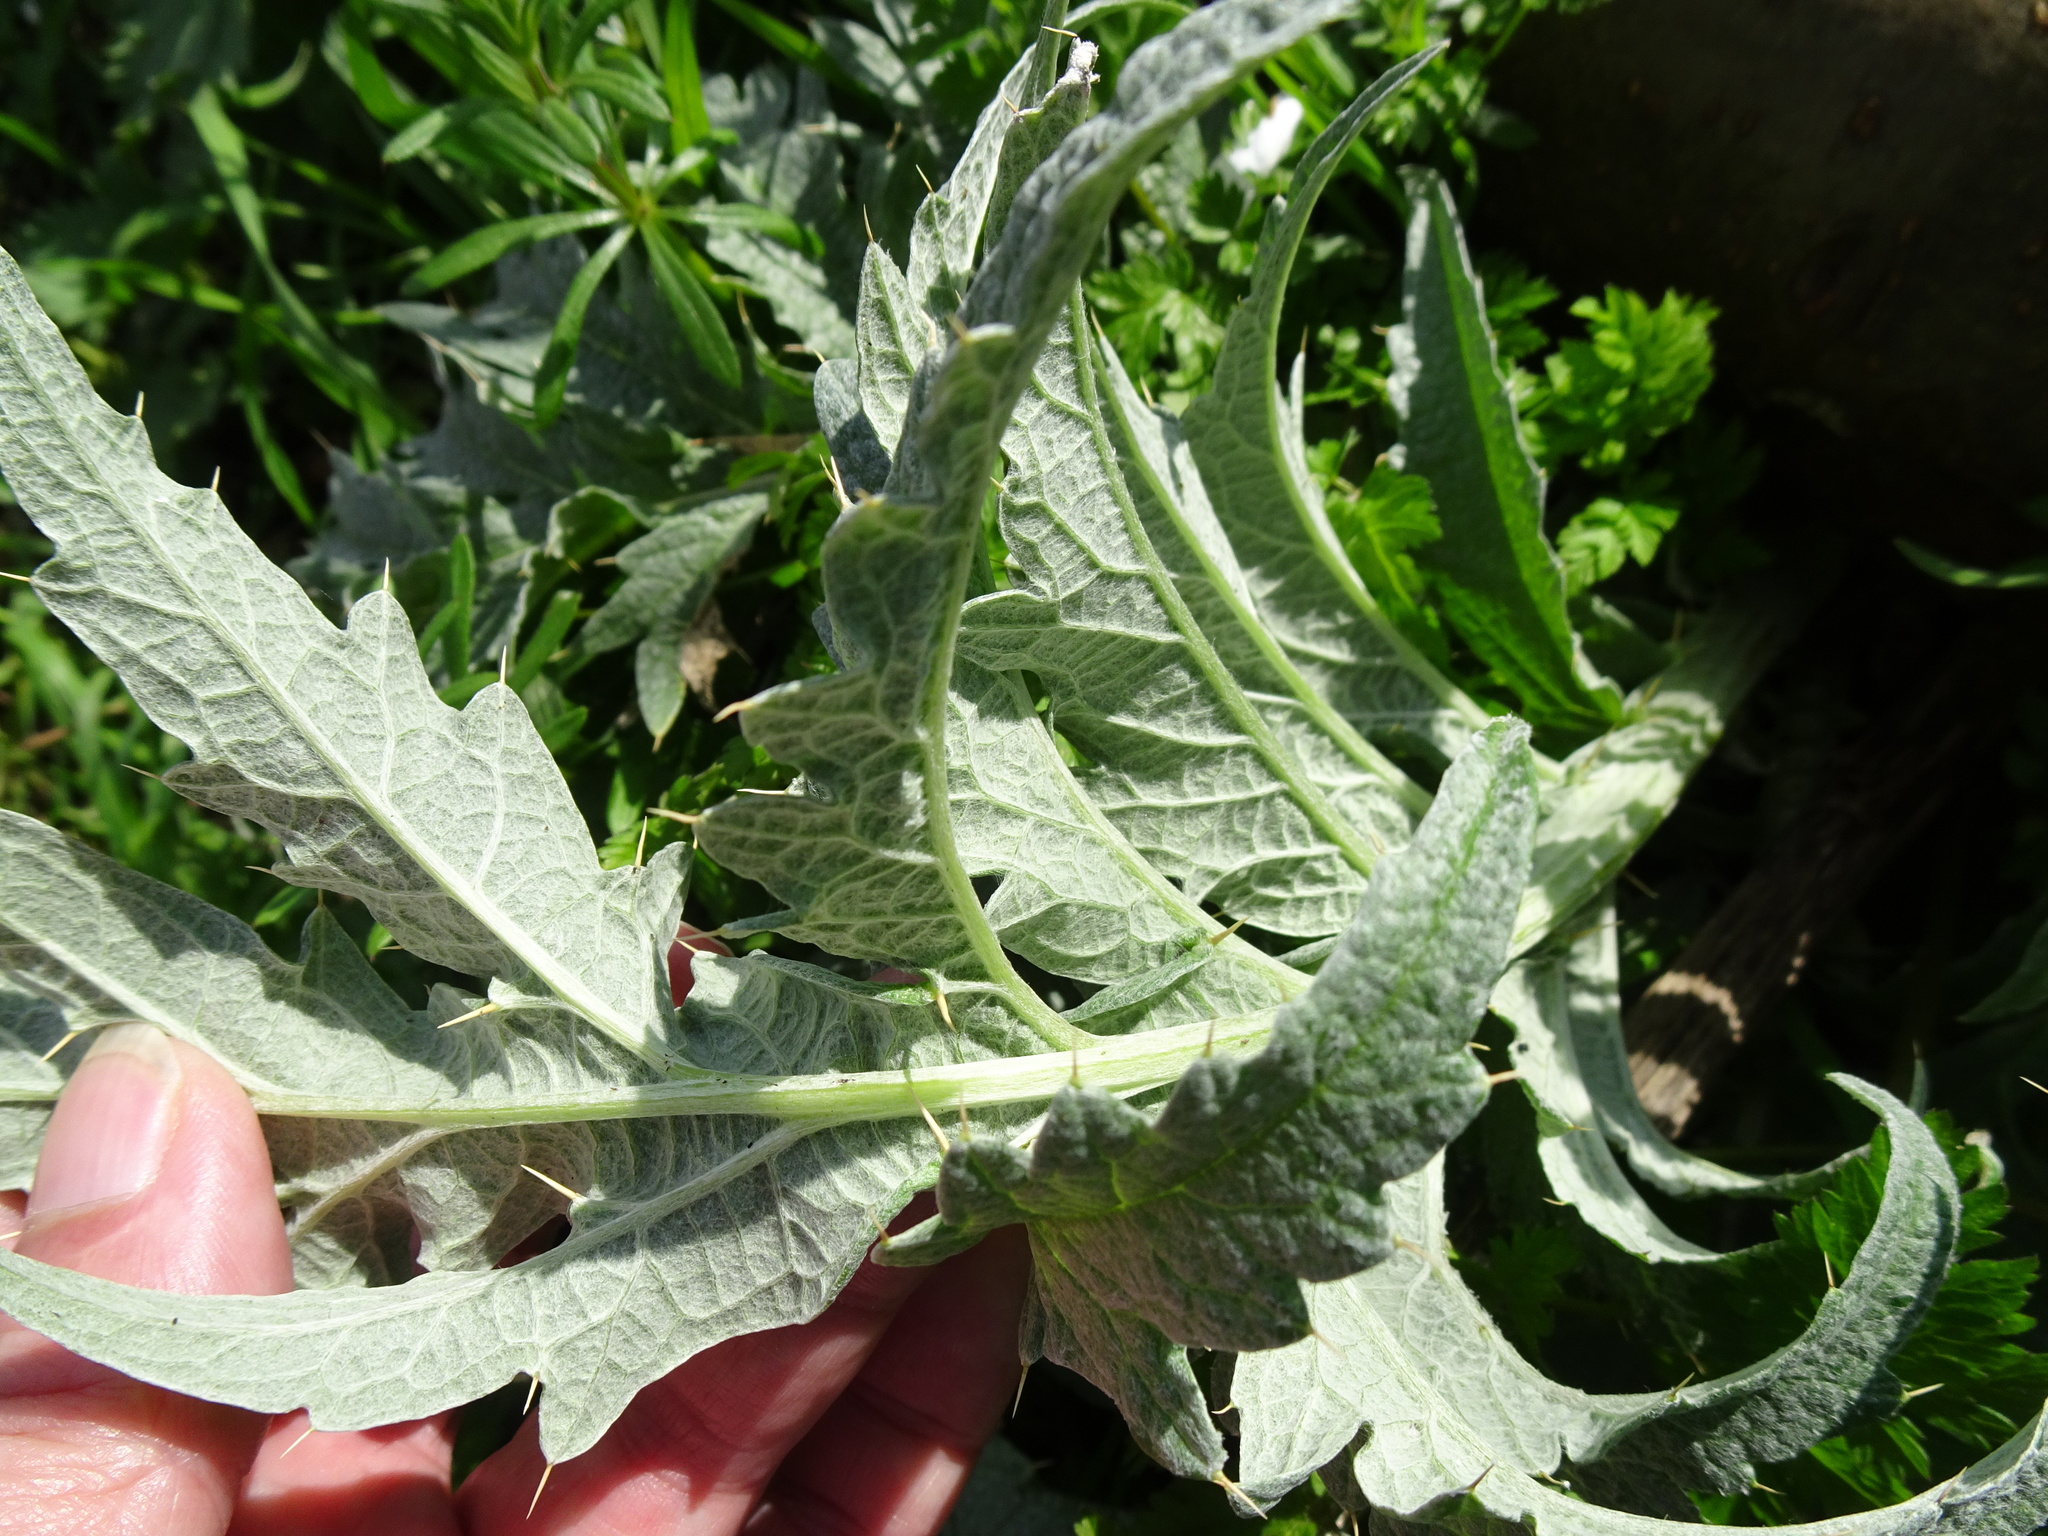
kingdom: Plantae
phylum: Tracheophyta
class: Magnoliopsida
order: Asterales
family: Asteraceae
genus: Cynara
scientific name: Cynara cardunculus
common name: Globe artichoke
